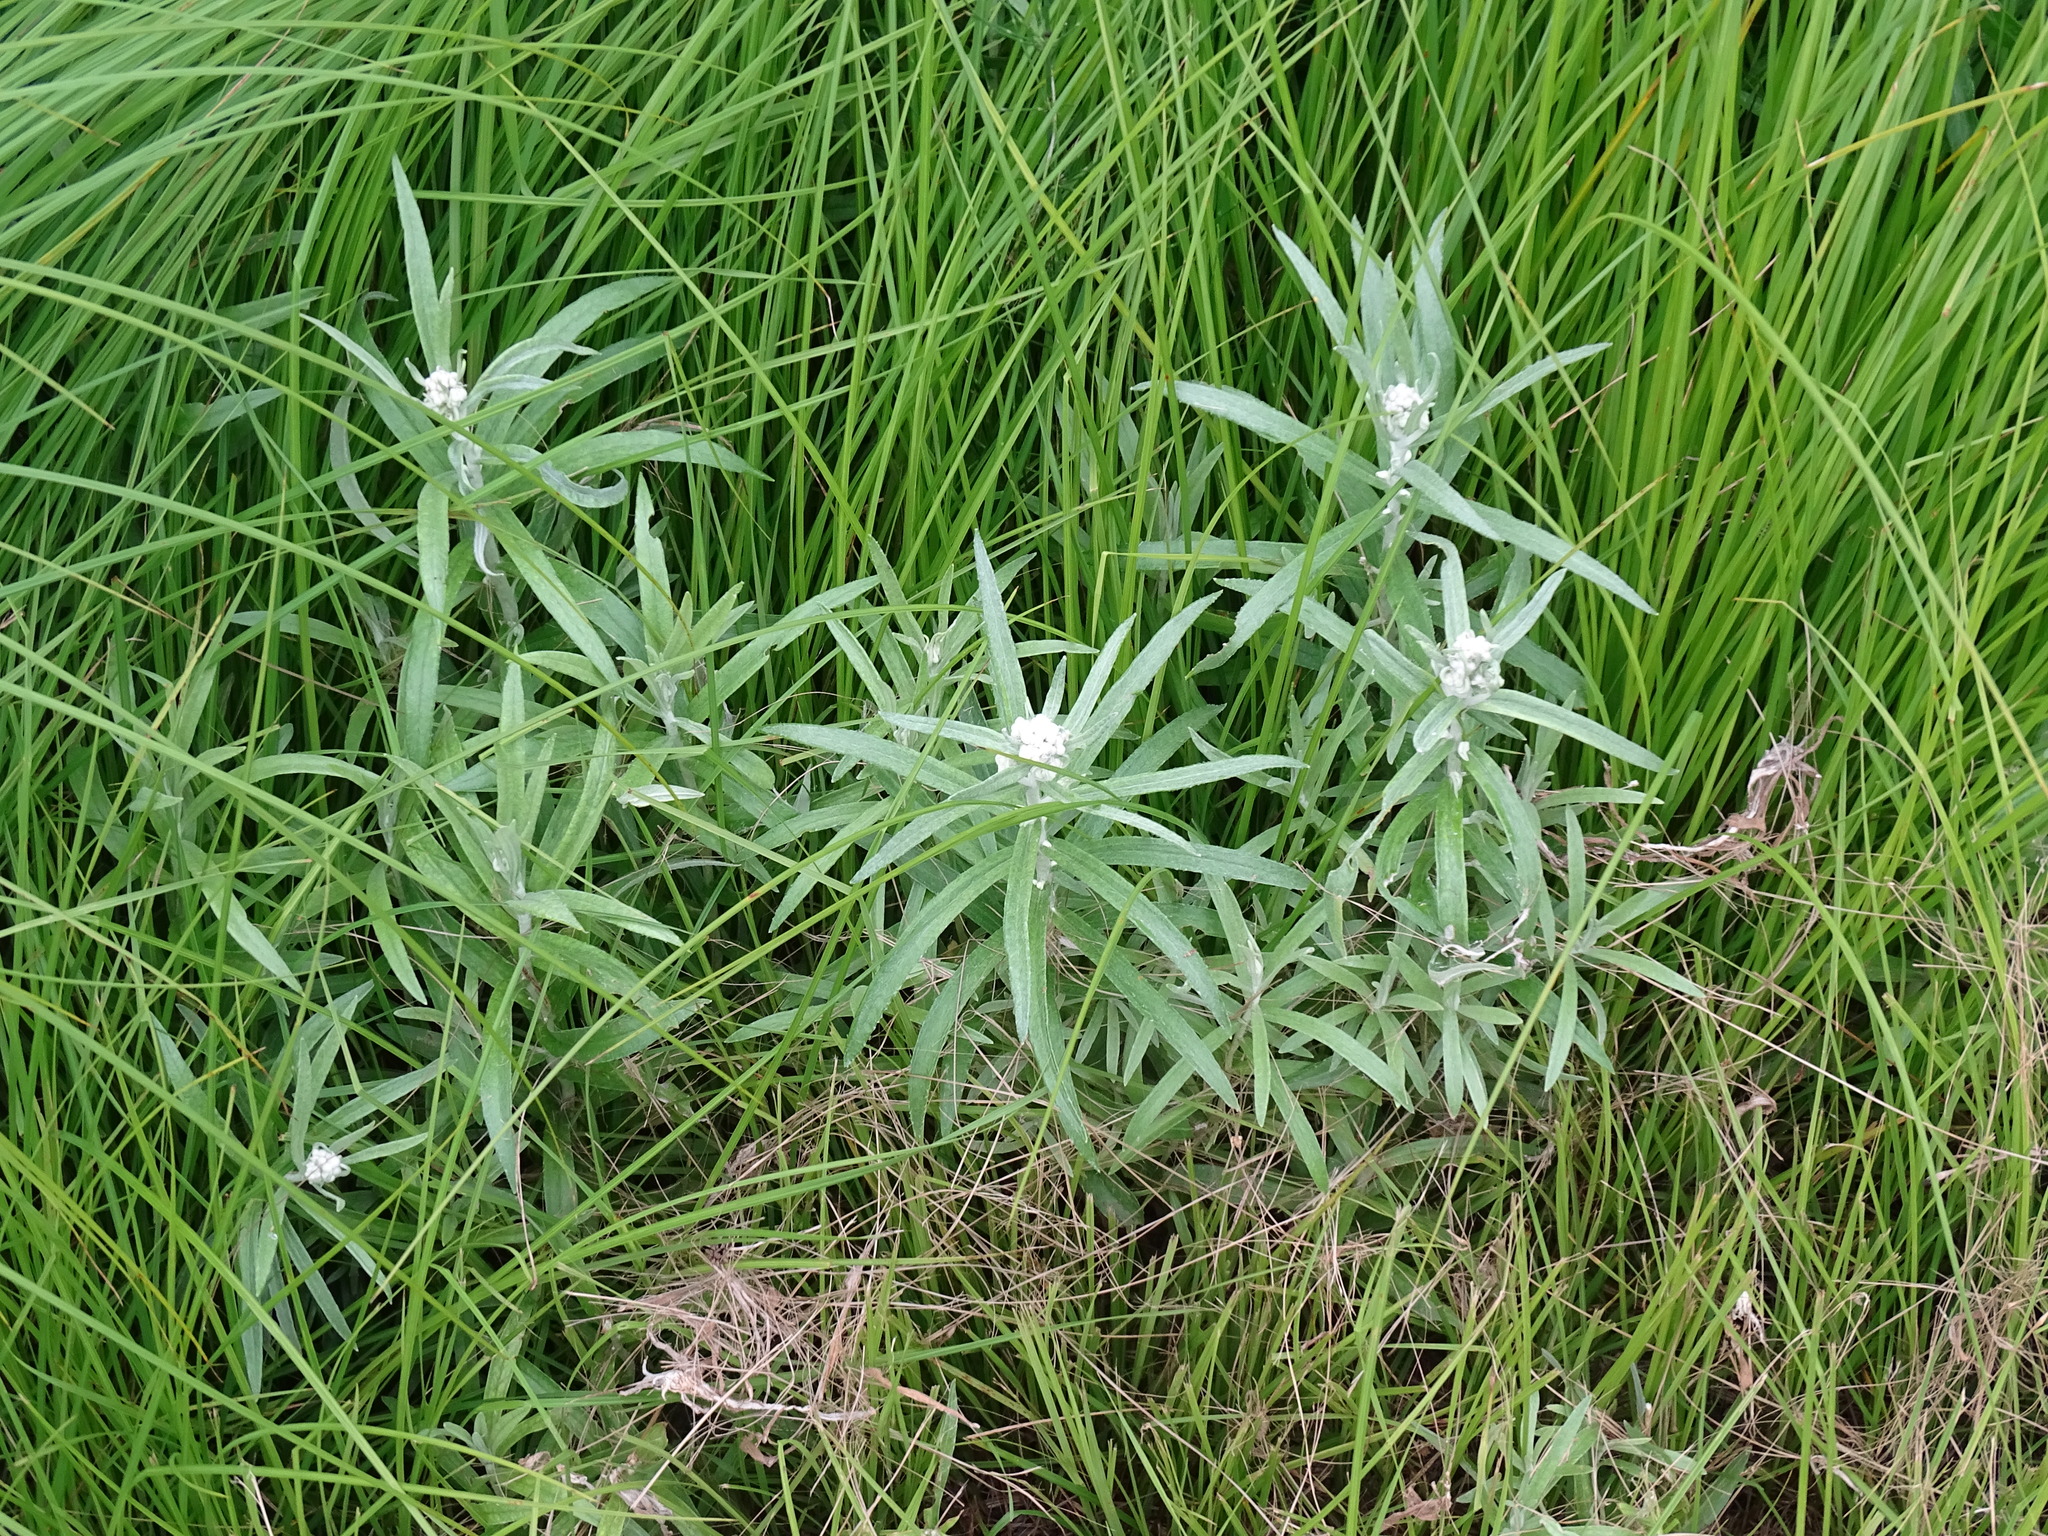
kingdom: Plantae
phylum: Tracheophyta
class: Magnoliopsida
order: Asterales
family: Asteraceae
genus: Anaphalis
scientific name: Anaphalis margaritacea
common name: Pearly everlasting
